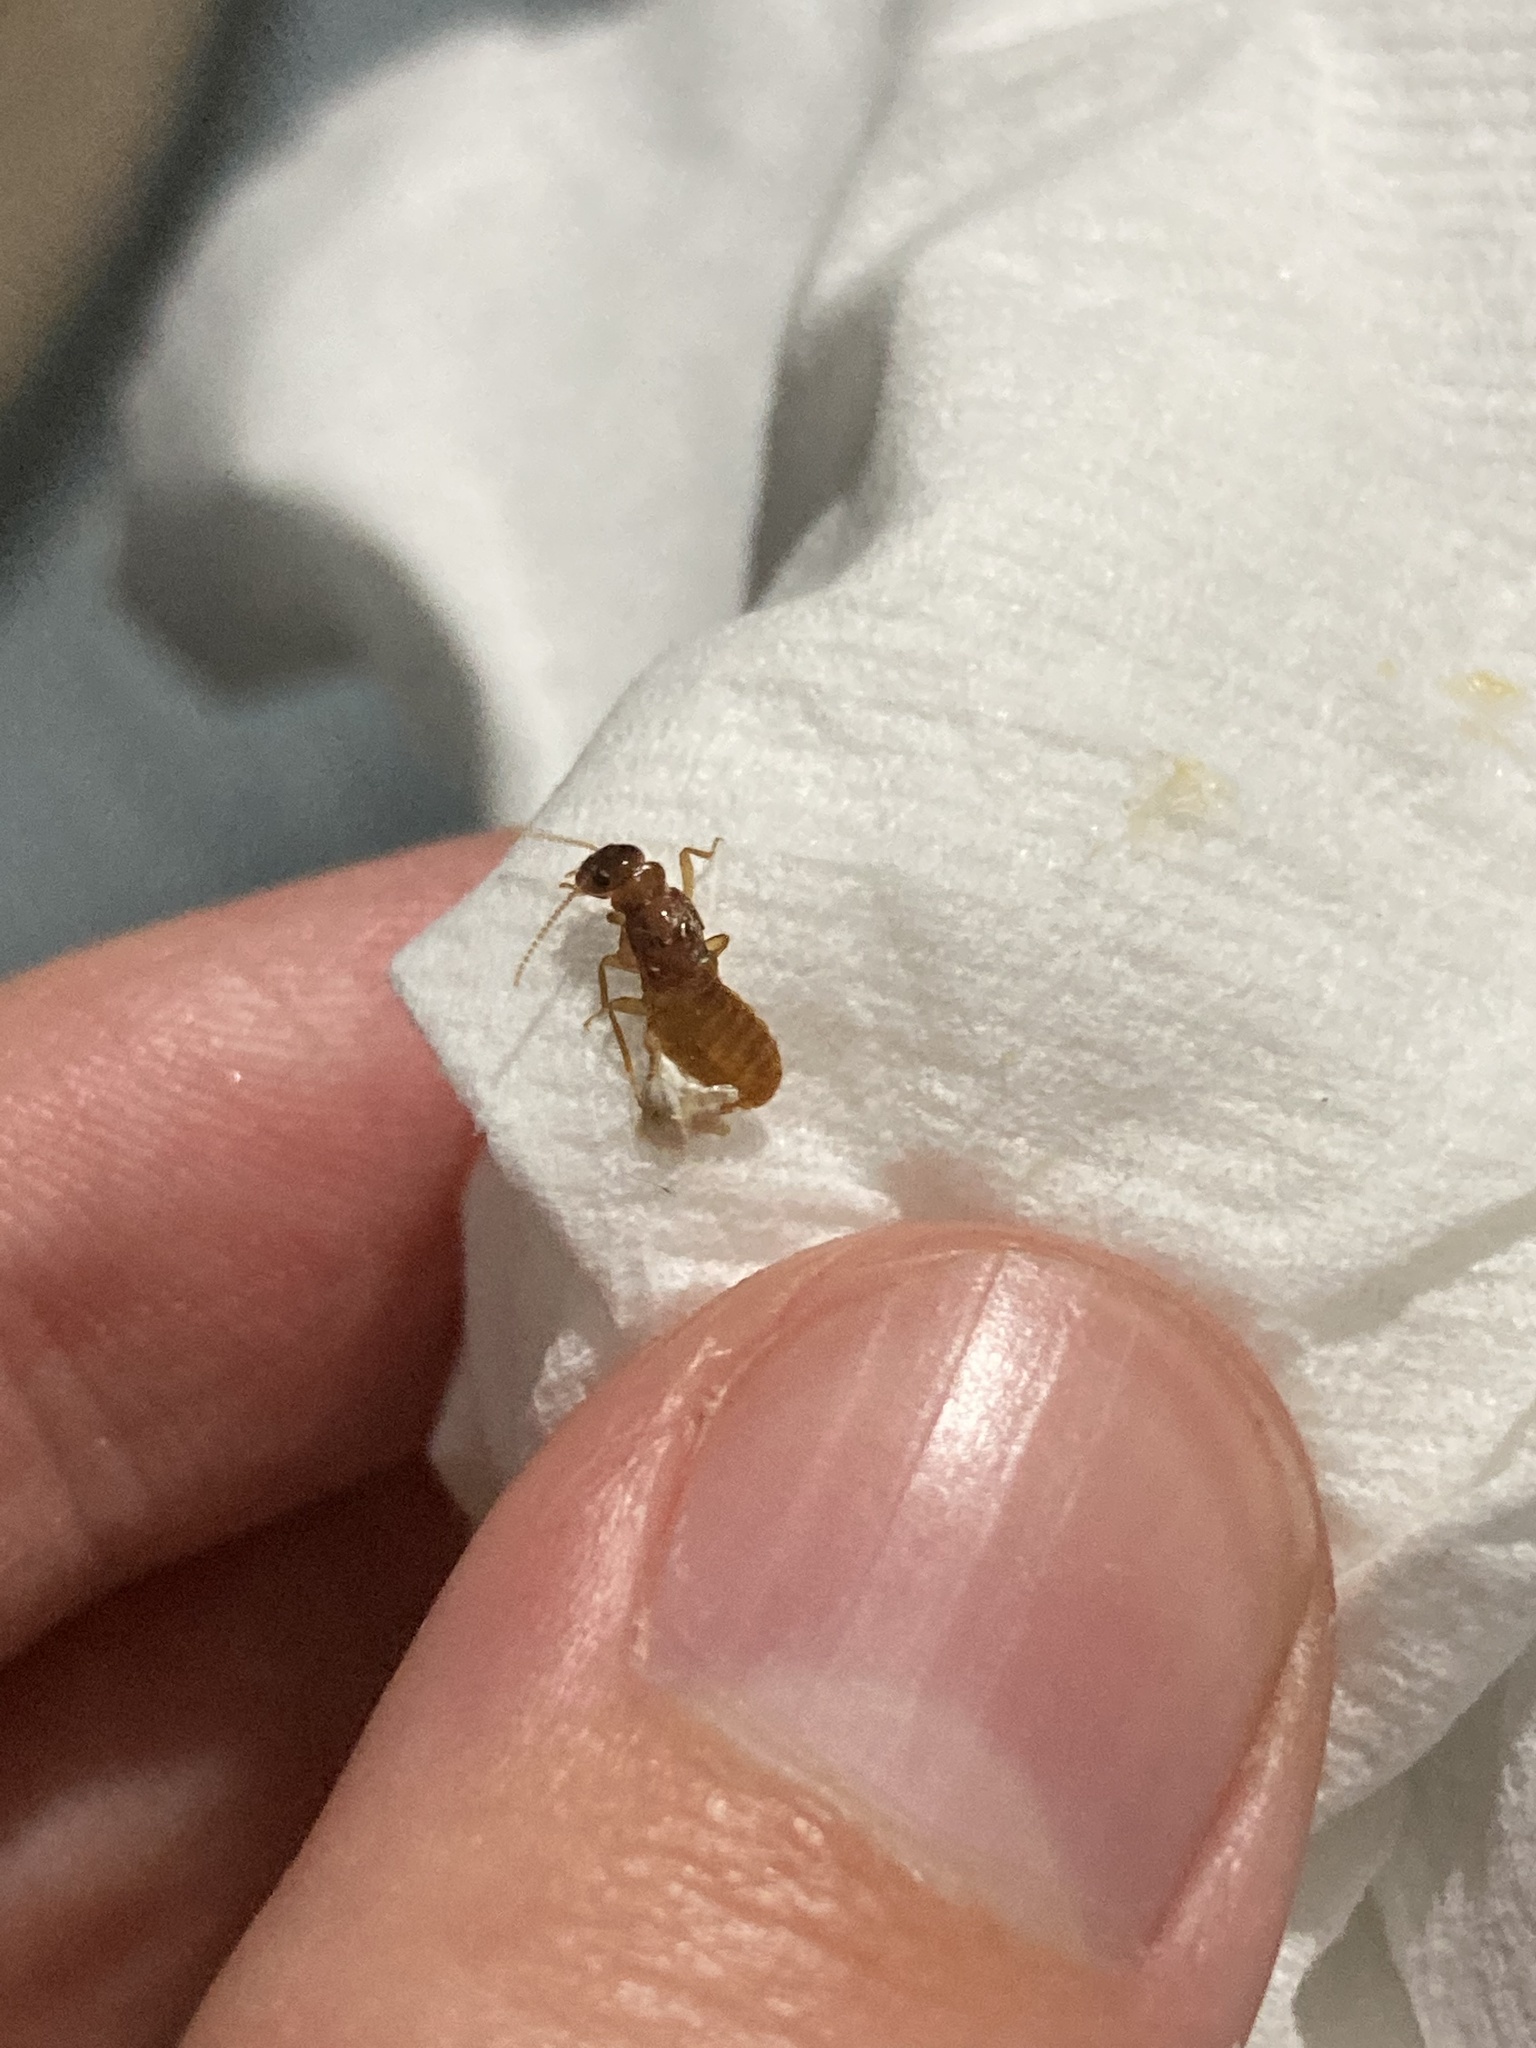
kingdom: Animalia
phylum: Arthropoda
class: Insecta
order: Blattodea
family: Rhinotermitidae
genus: Coptotermes
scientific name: Coptotermes formosanus
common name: Formosan termite
